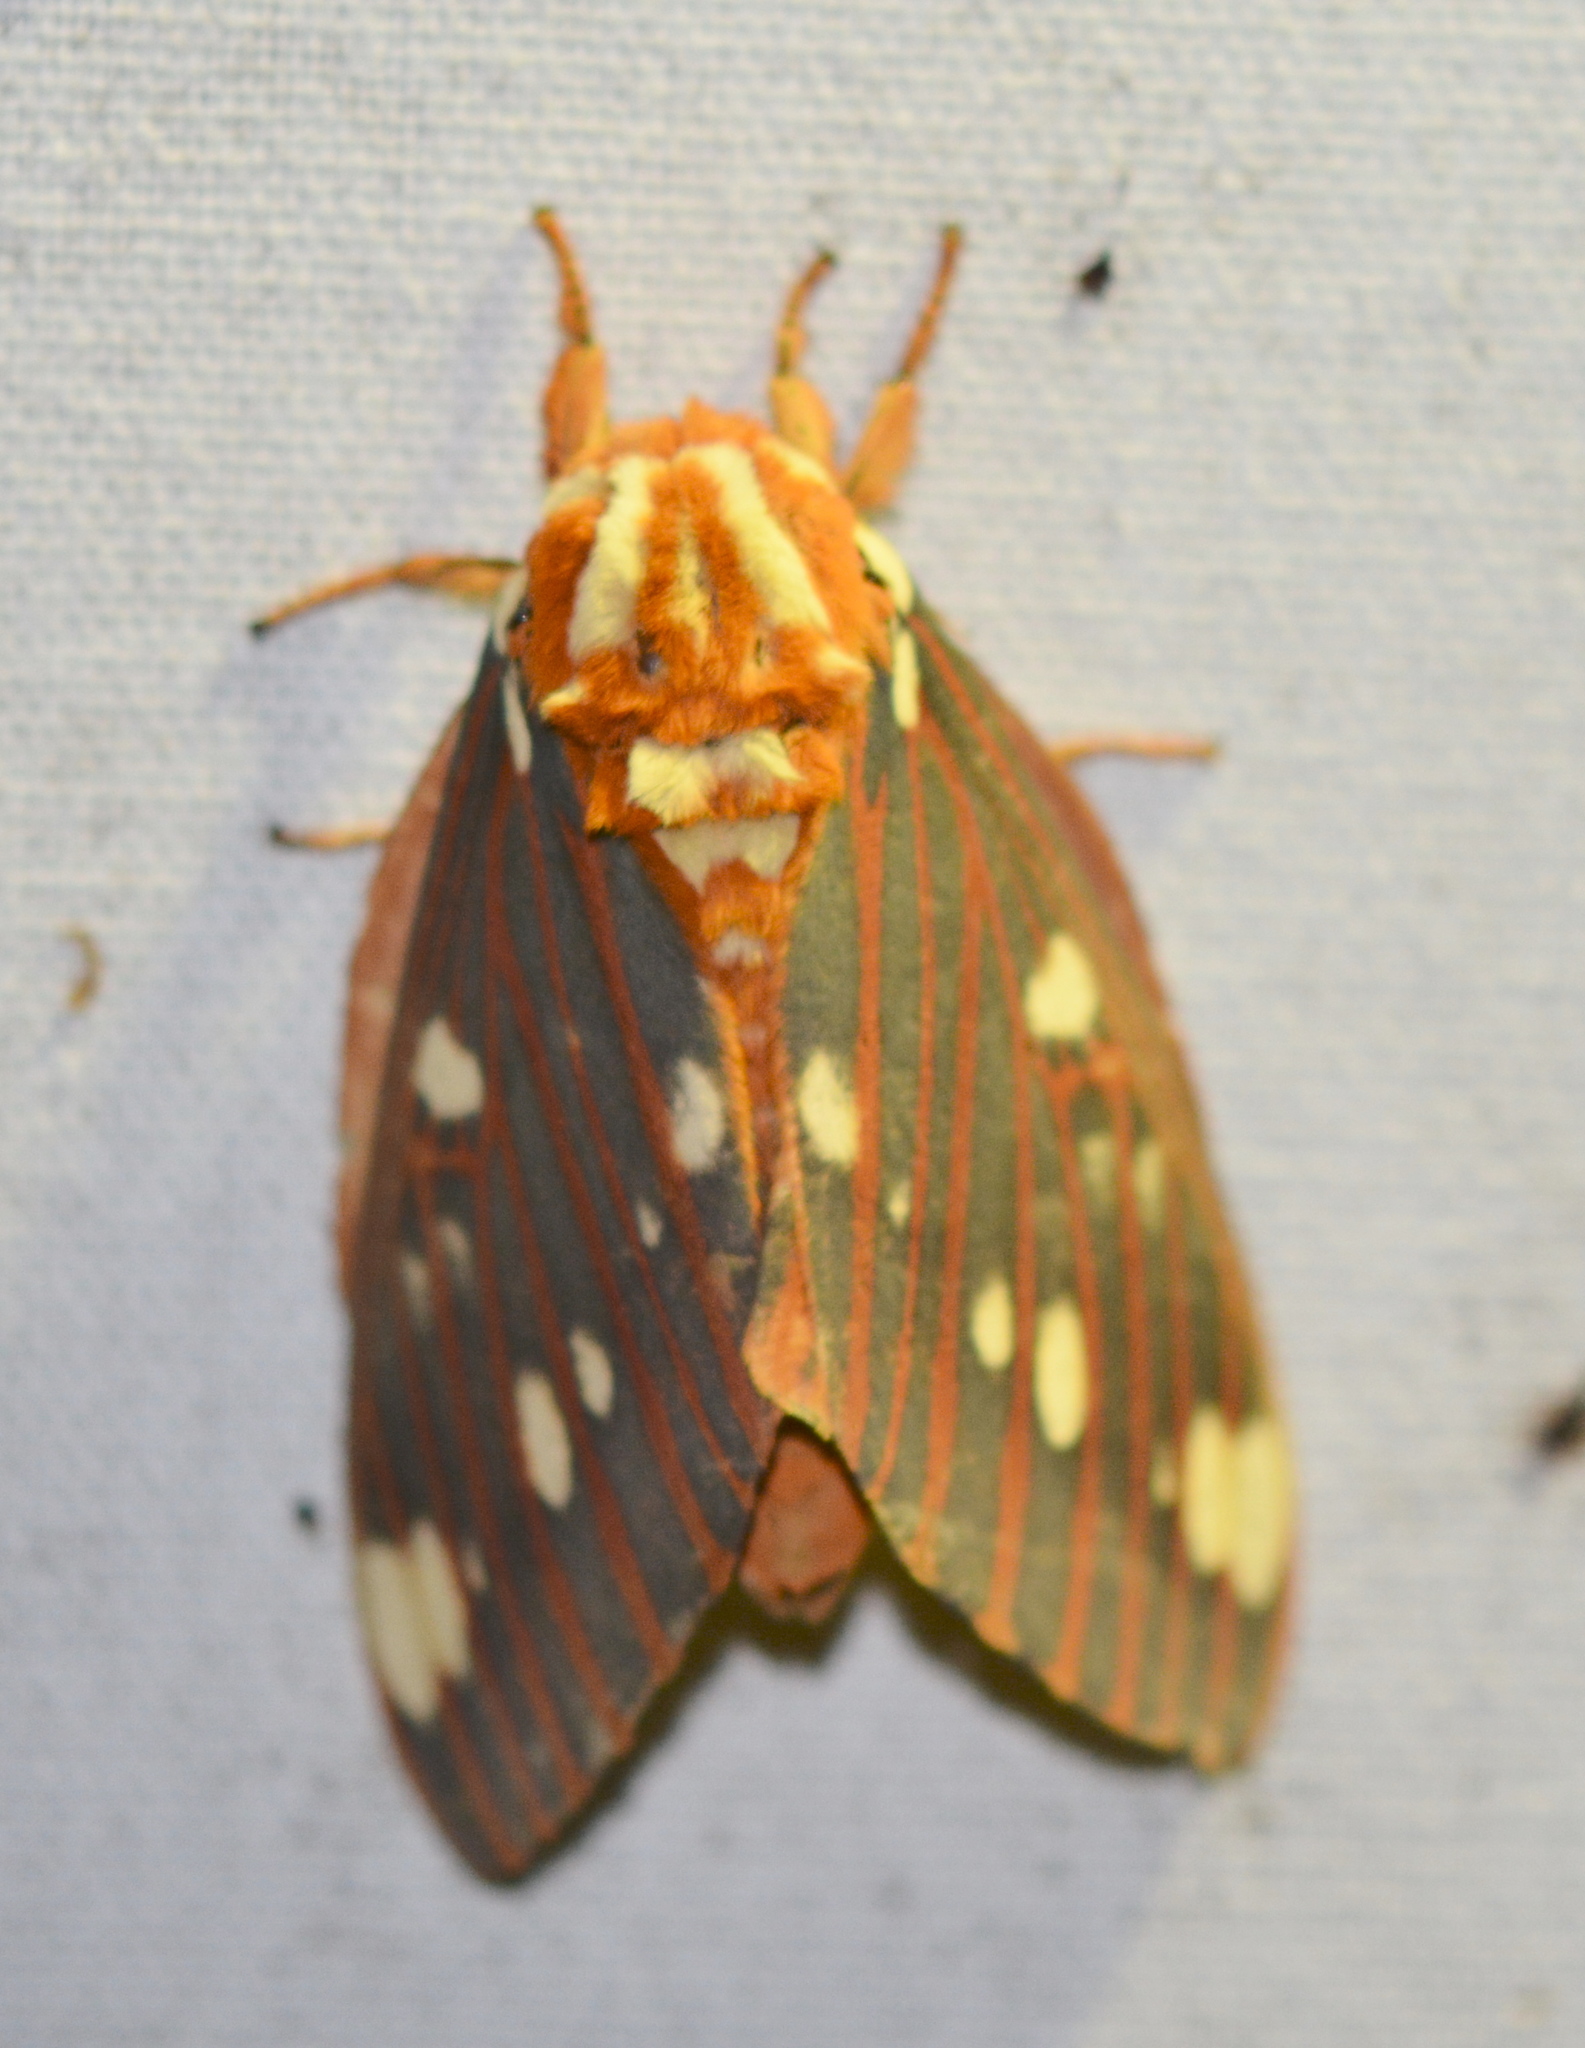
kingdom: Animalia
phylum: Arthropoda
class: Insecta
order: Lepidoptera
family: Saturniidae
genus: Citheronia
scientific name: Citheronia regalis
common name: Hickory horned devil
